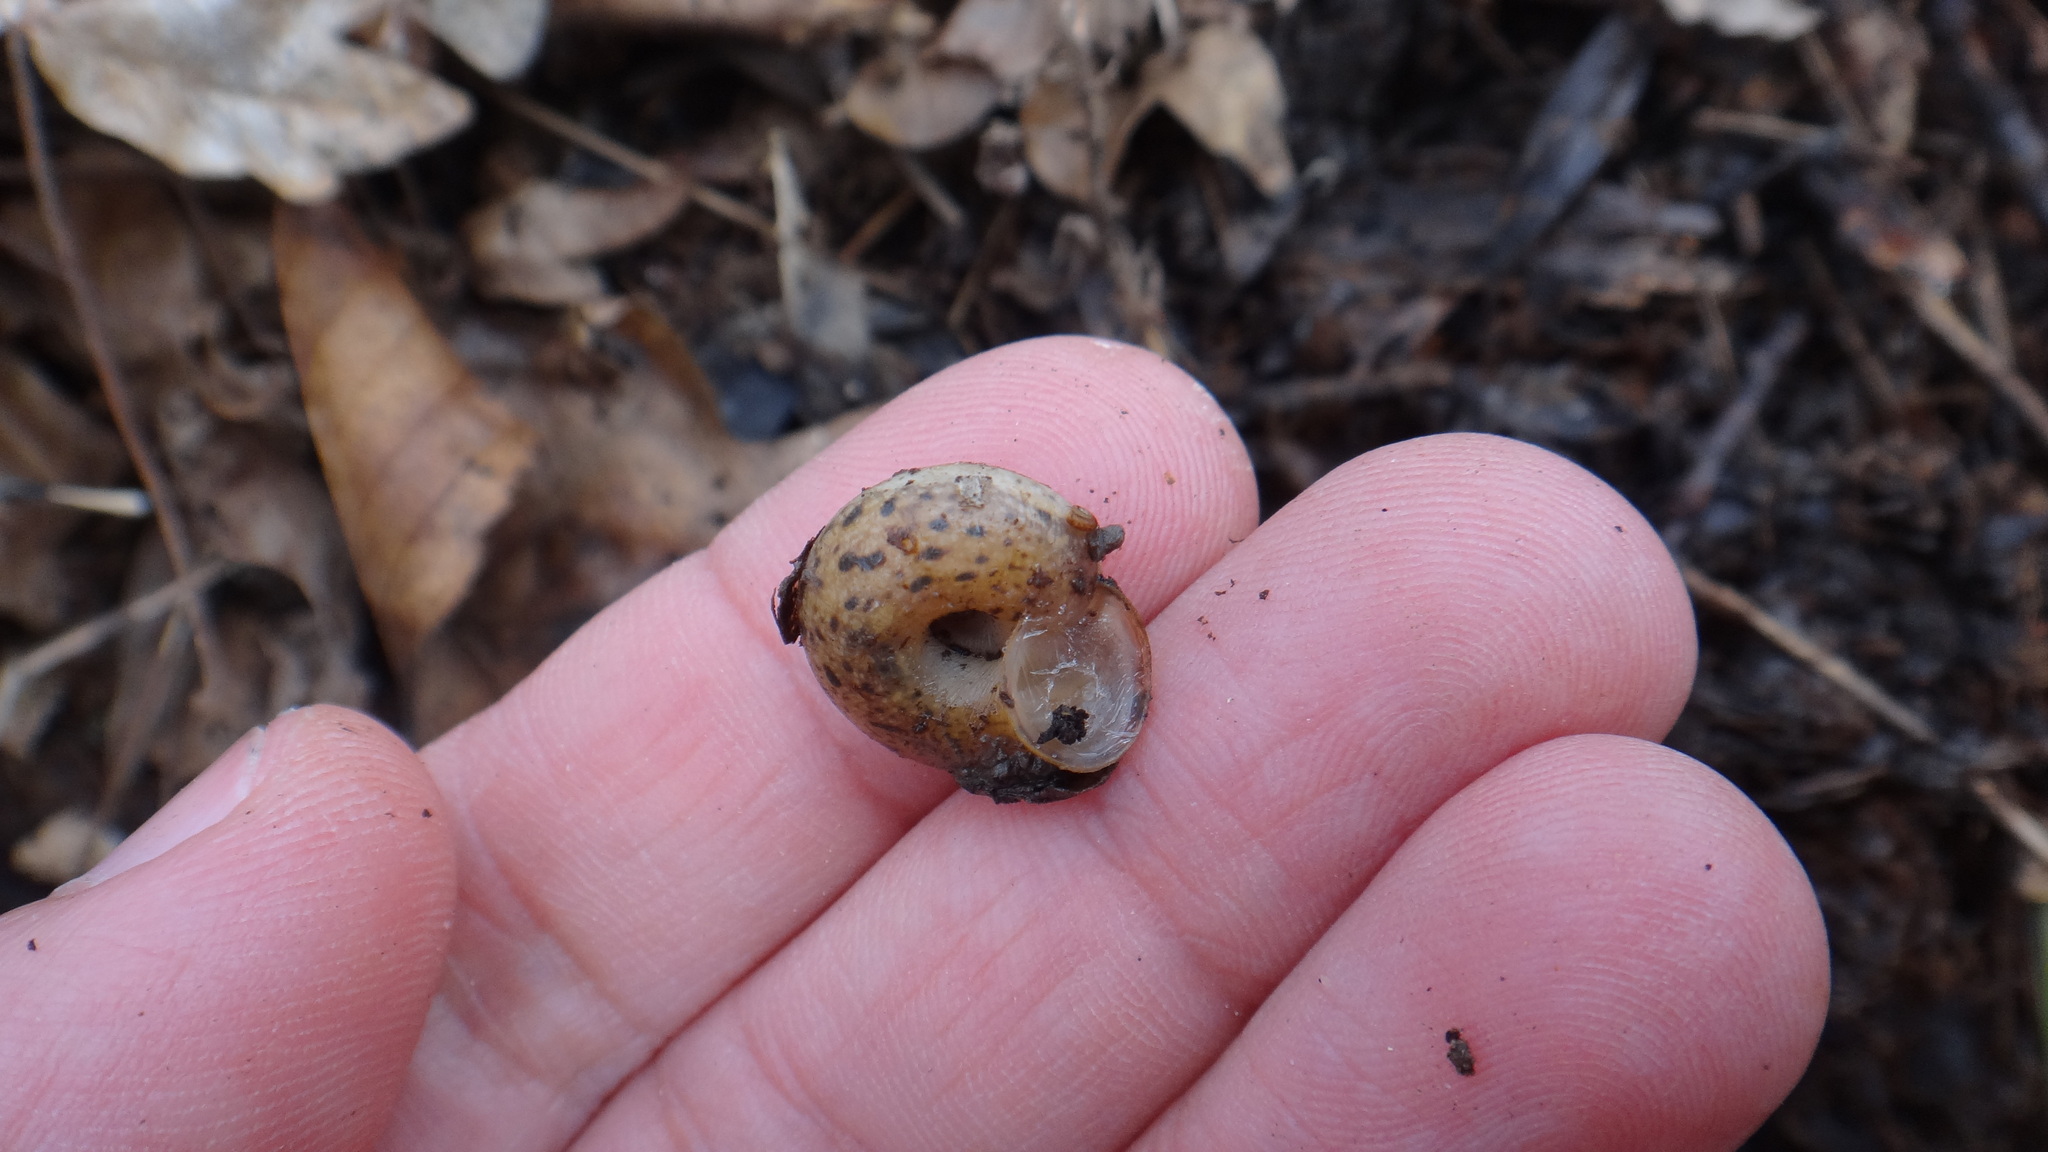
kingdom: Animalia
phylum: Mollusca
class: Gastropoda
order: Stylommatophora
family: Hygromiidae
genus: Euomphalia
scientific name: Euomphalia strigella
